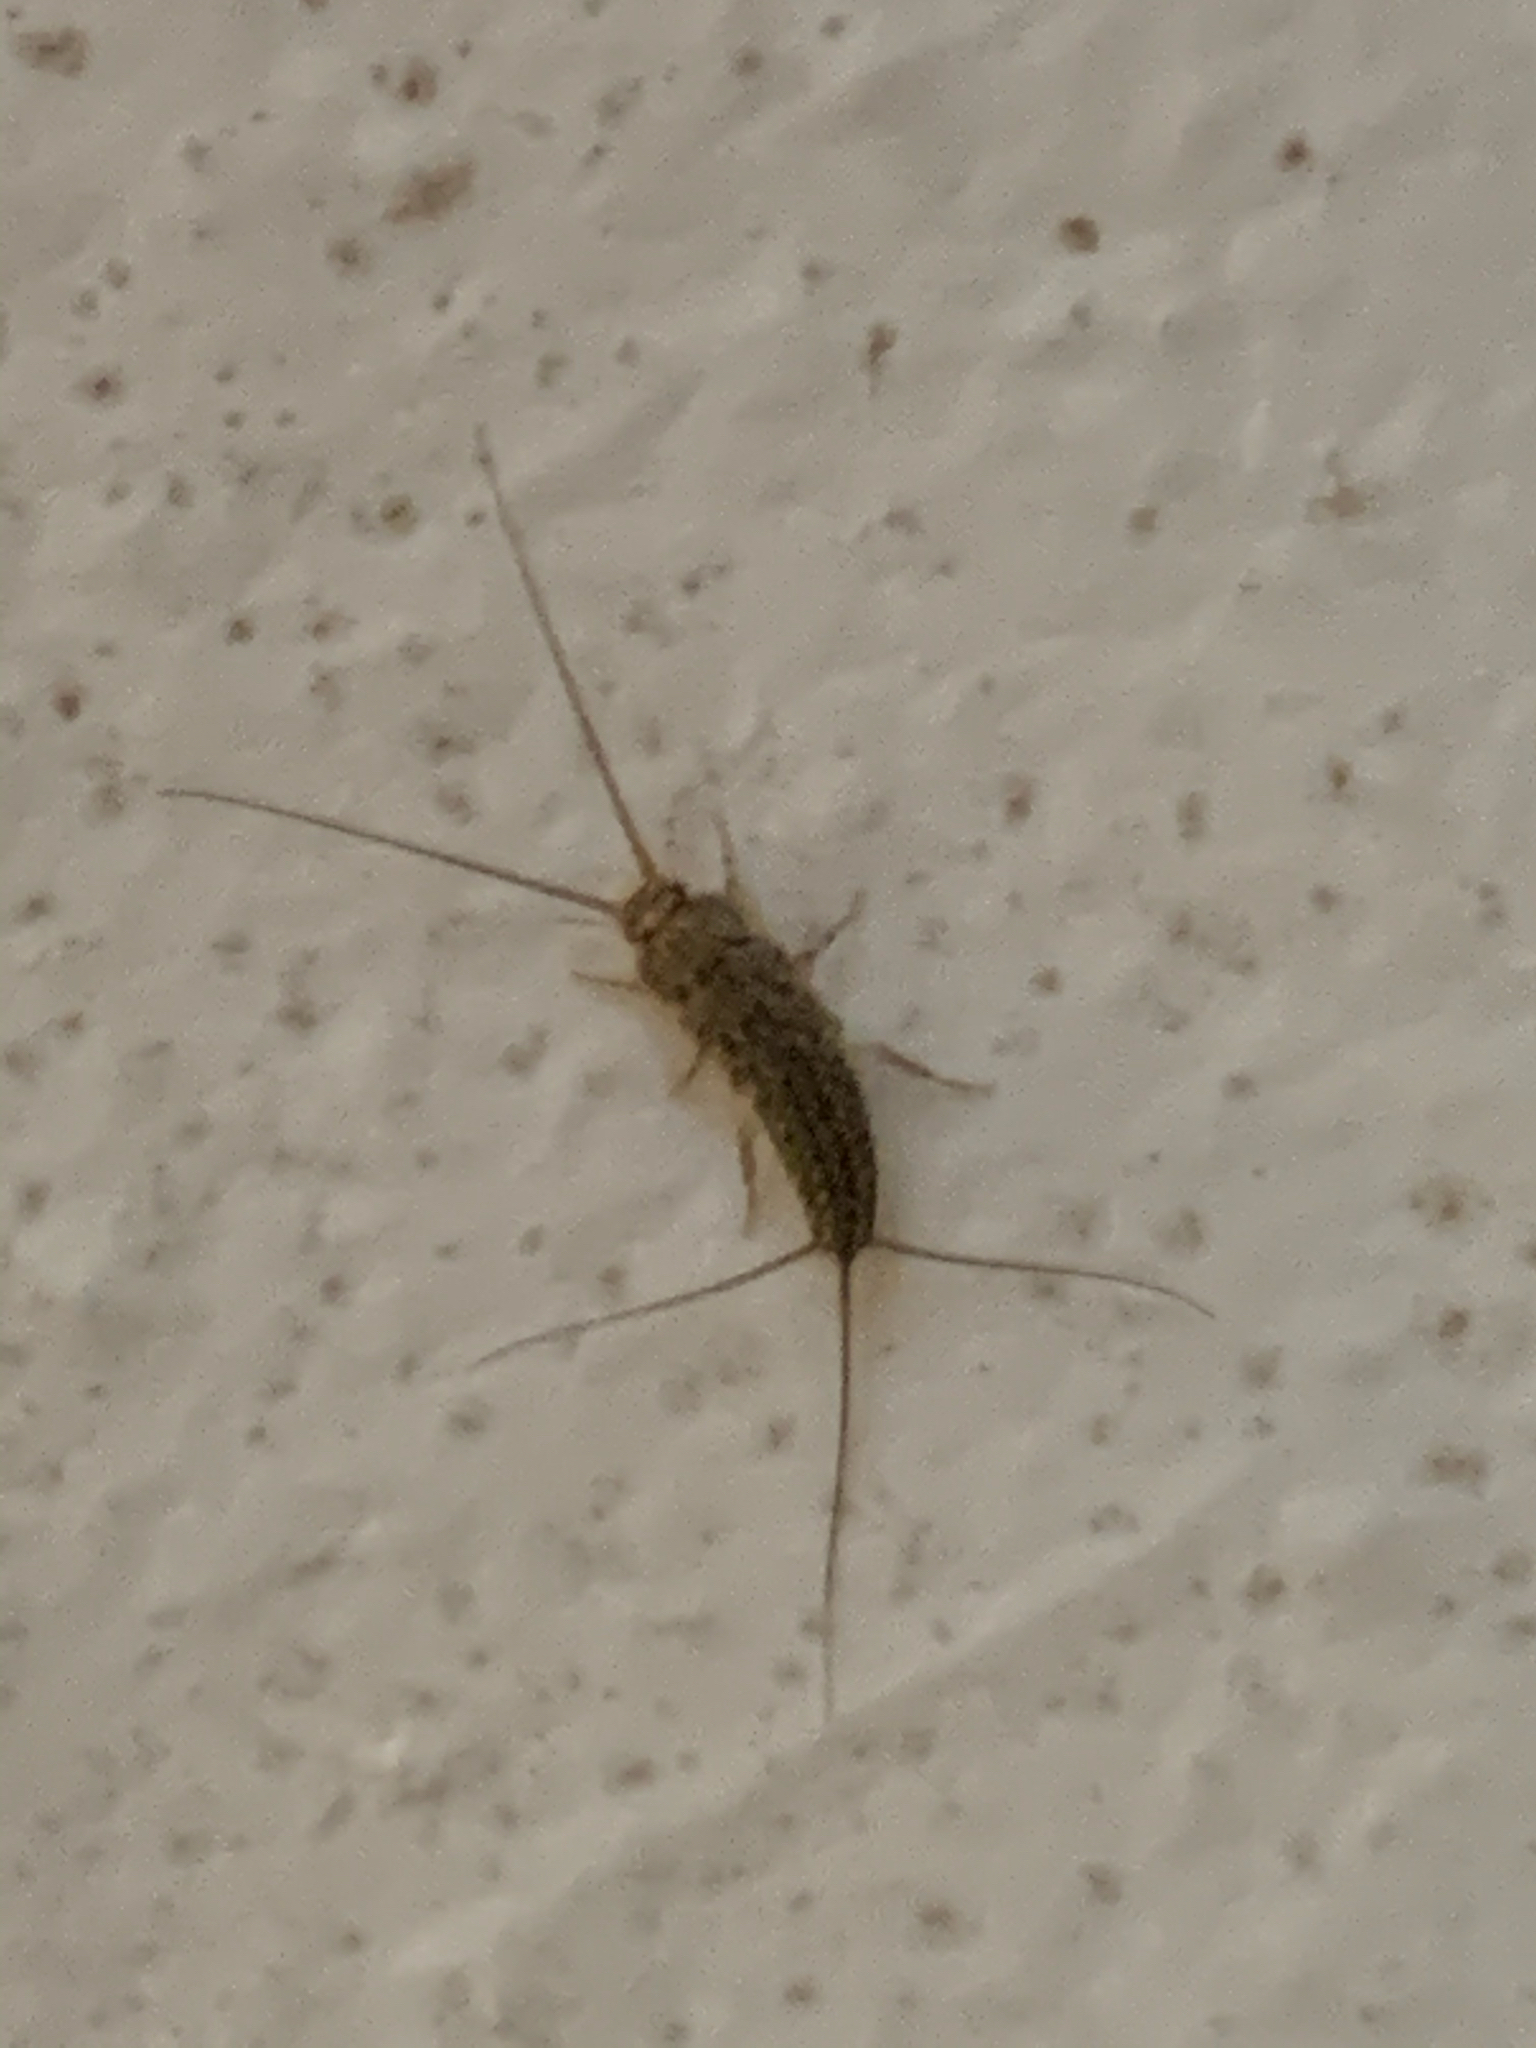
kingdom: Animalia
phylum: Arthropoda
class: Insecta
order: Zygentoma
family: Lepismatidae
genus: Ctenolepisma
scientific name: Ctenolepisma lineata
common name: Four-lined silverfish
